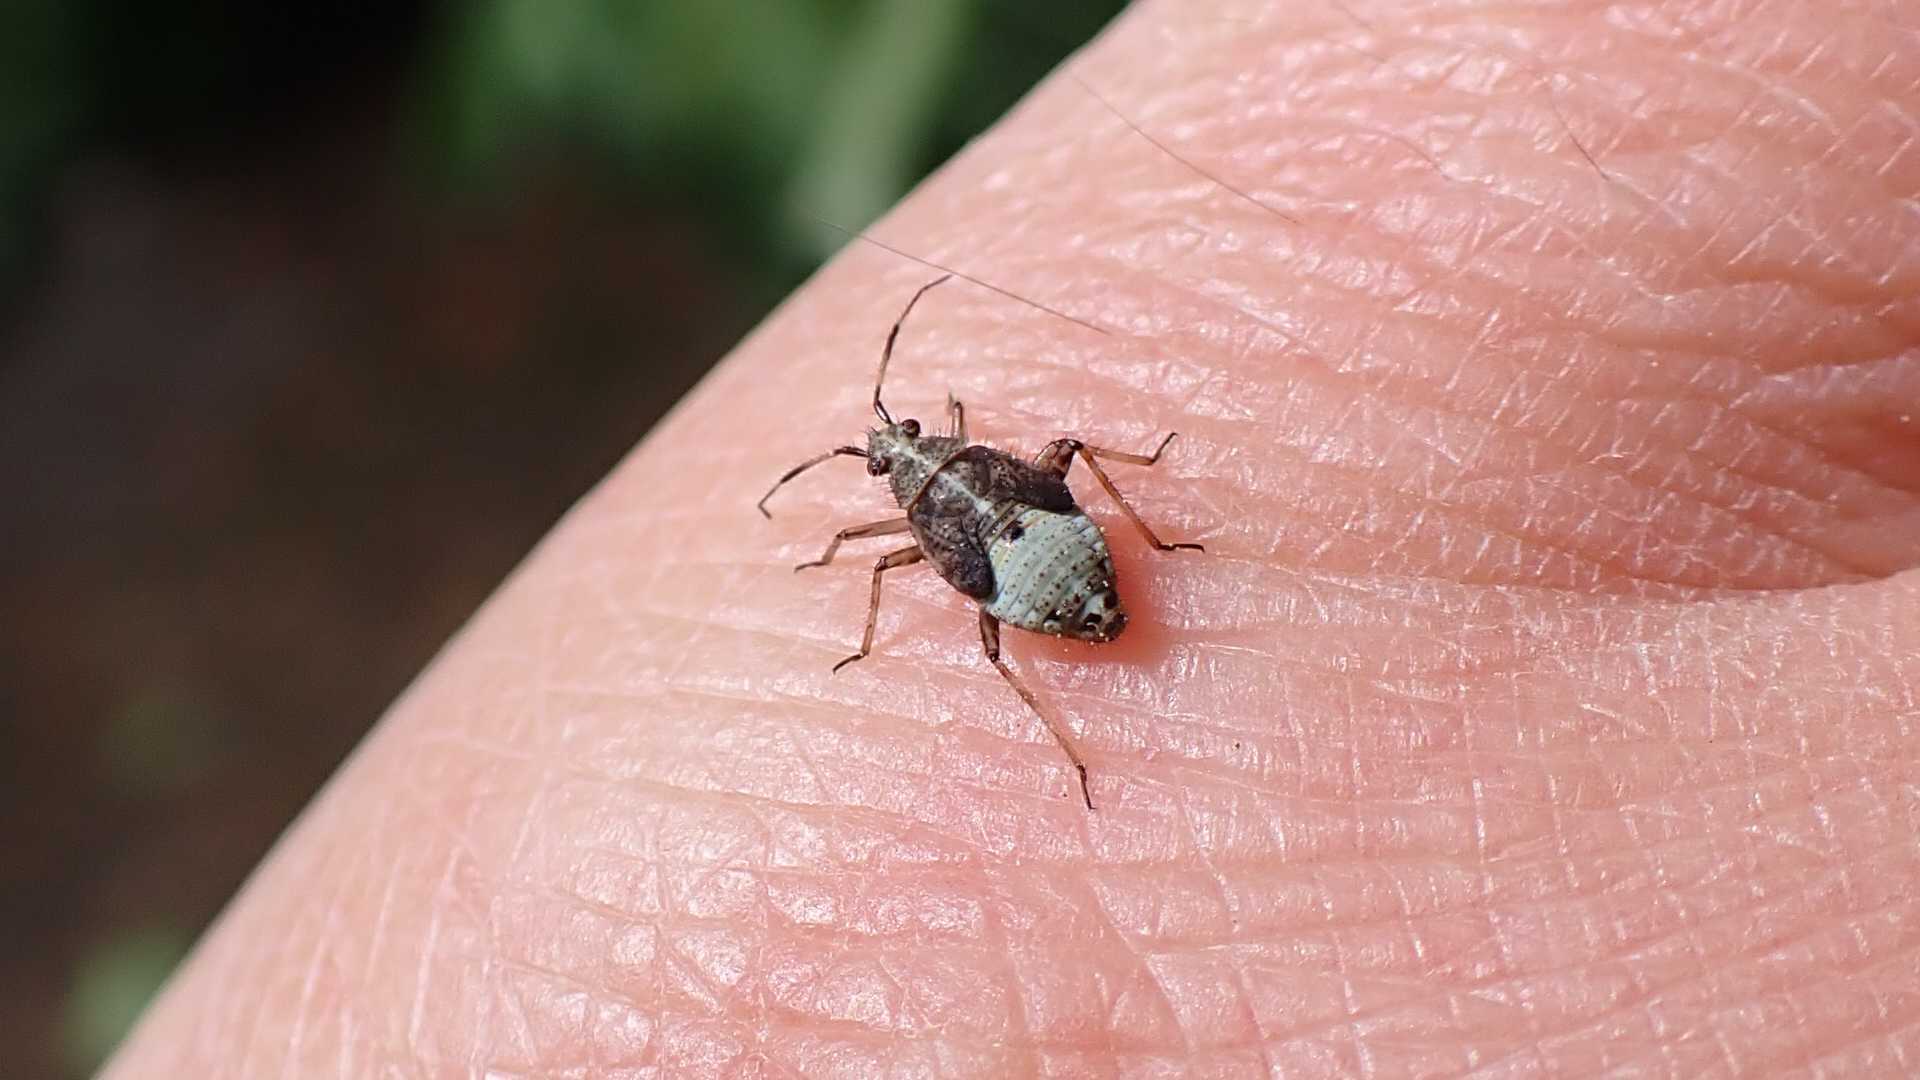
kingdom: Animalia
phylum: Arthropoda
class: Insecta
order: Hemiptera
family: Miridae
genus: Deraeocoris
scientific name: Deraeocoris flavilinea
